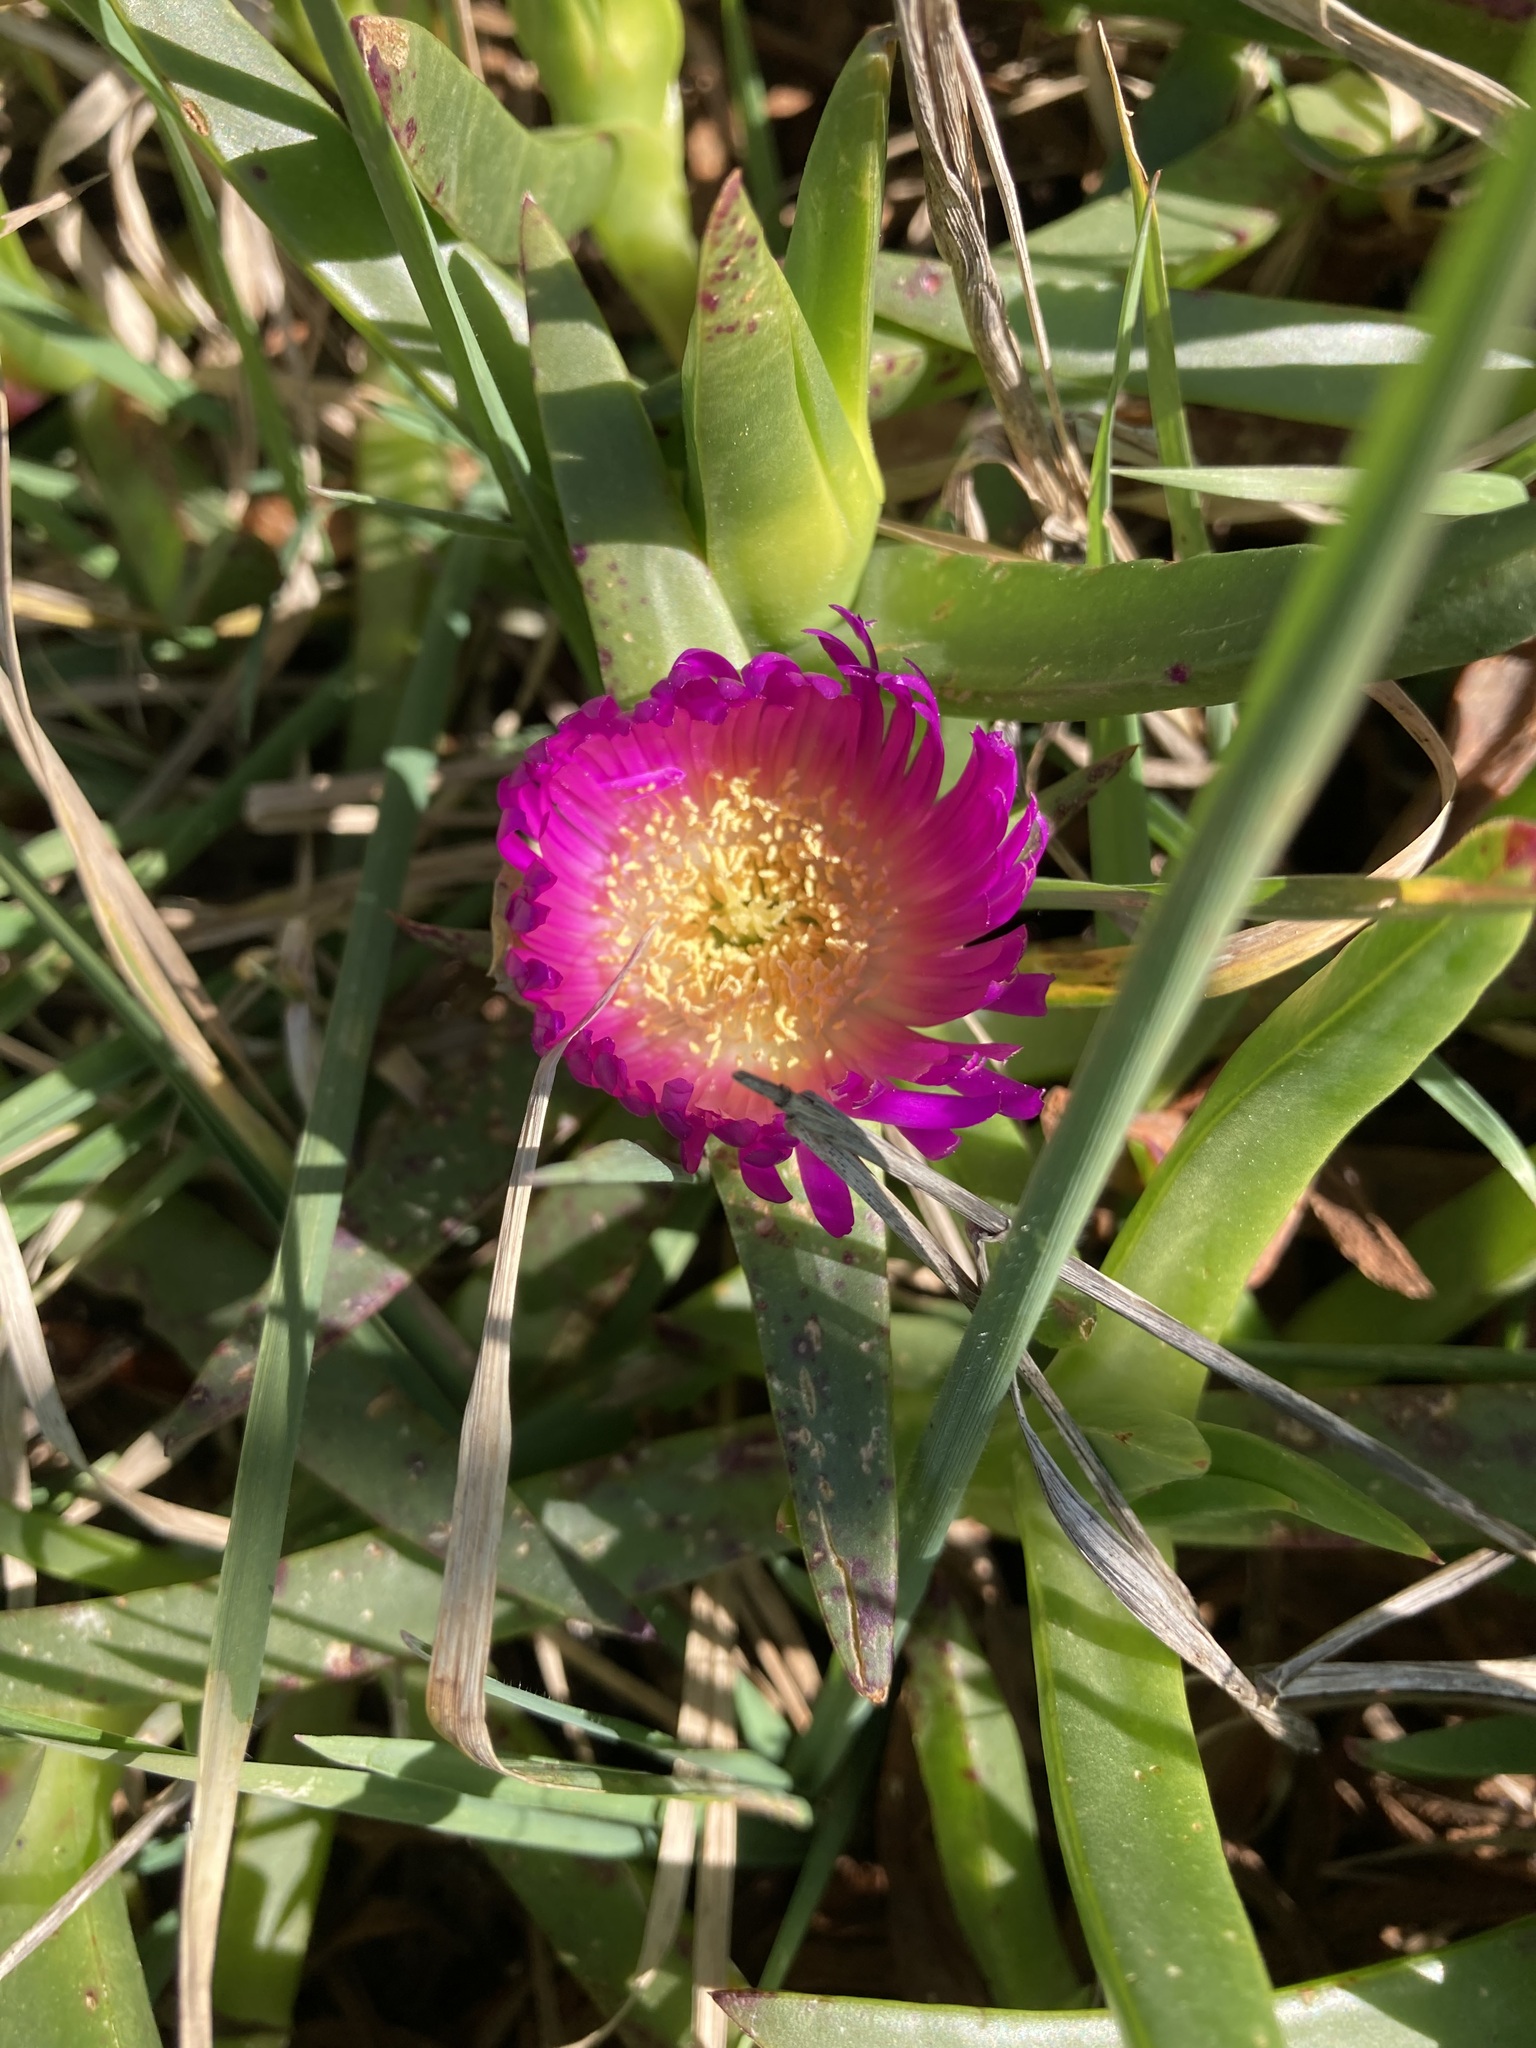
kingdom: Plantae
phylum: Tracheophyta
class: Magnoliopsida
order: Caryophyllales
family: Aizoaceae
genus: Carpobrotus
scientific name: Carpobrotus chilensis
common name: Sea fig
